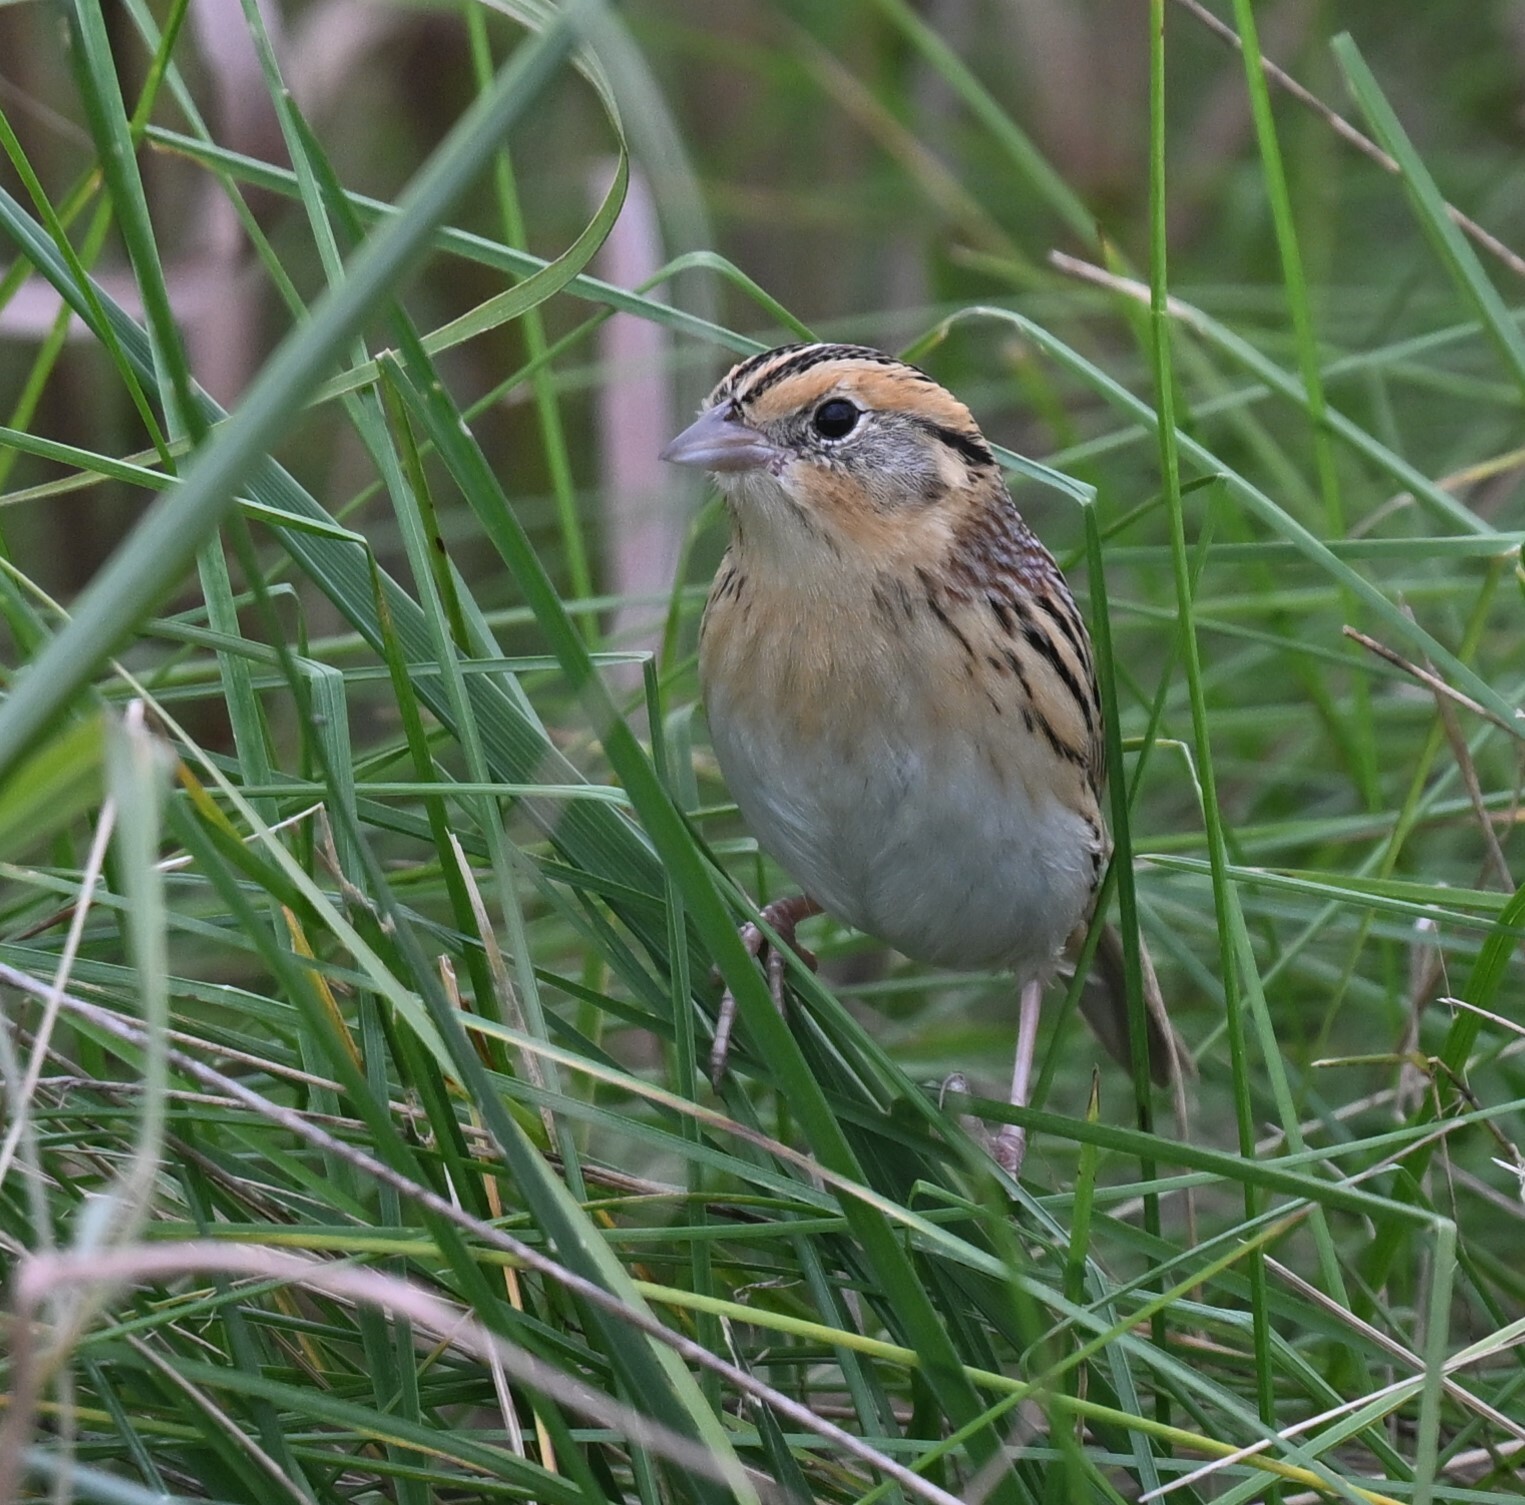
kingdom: Animalia
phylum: Chordata
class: Aves
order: Passeriformes
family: Passerellidae
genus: Ammospiza
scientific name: Ammospiza leconteii
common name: Le conte's sparrow
